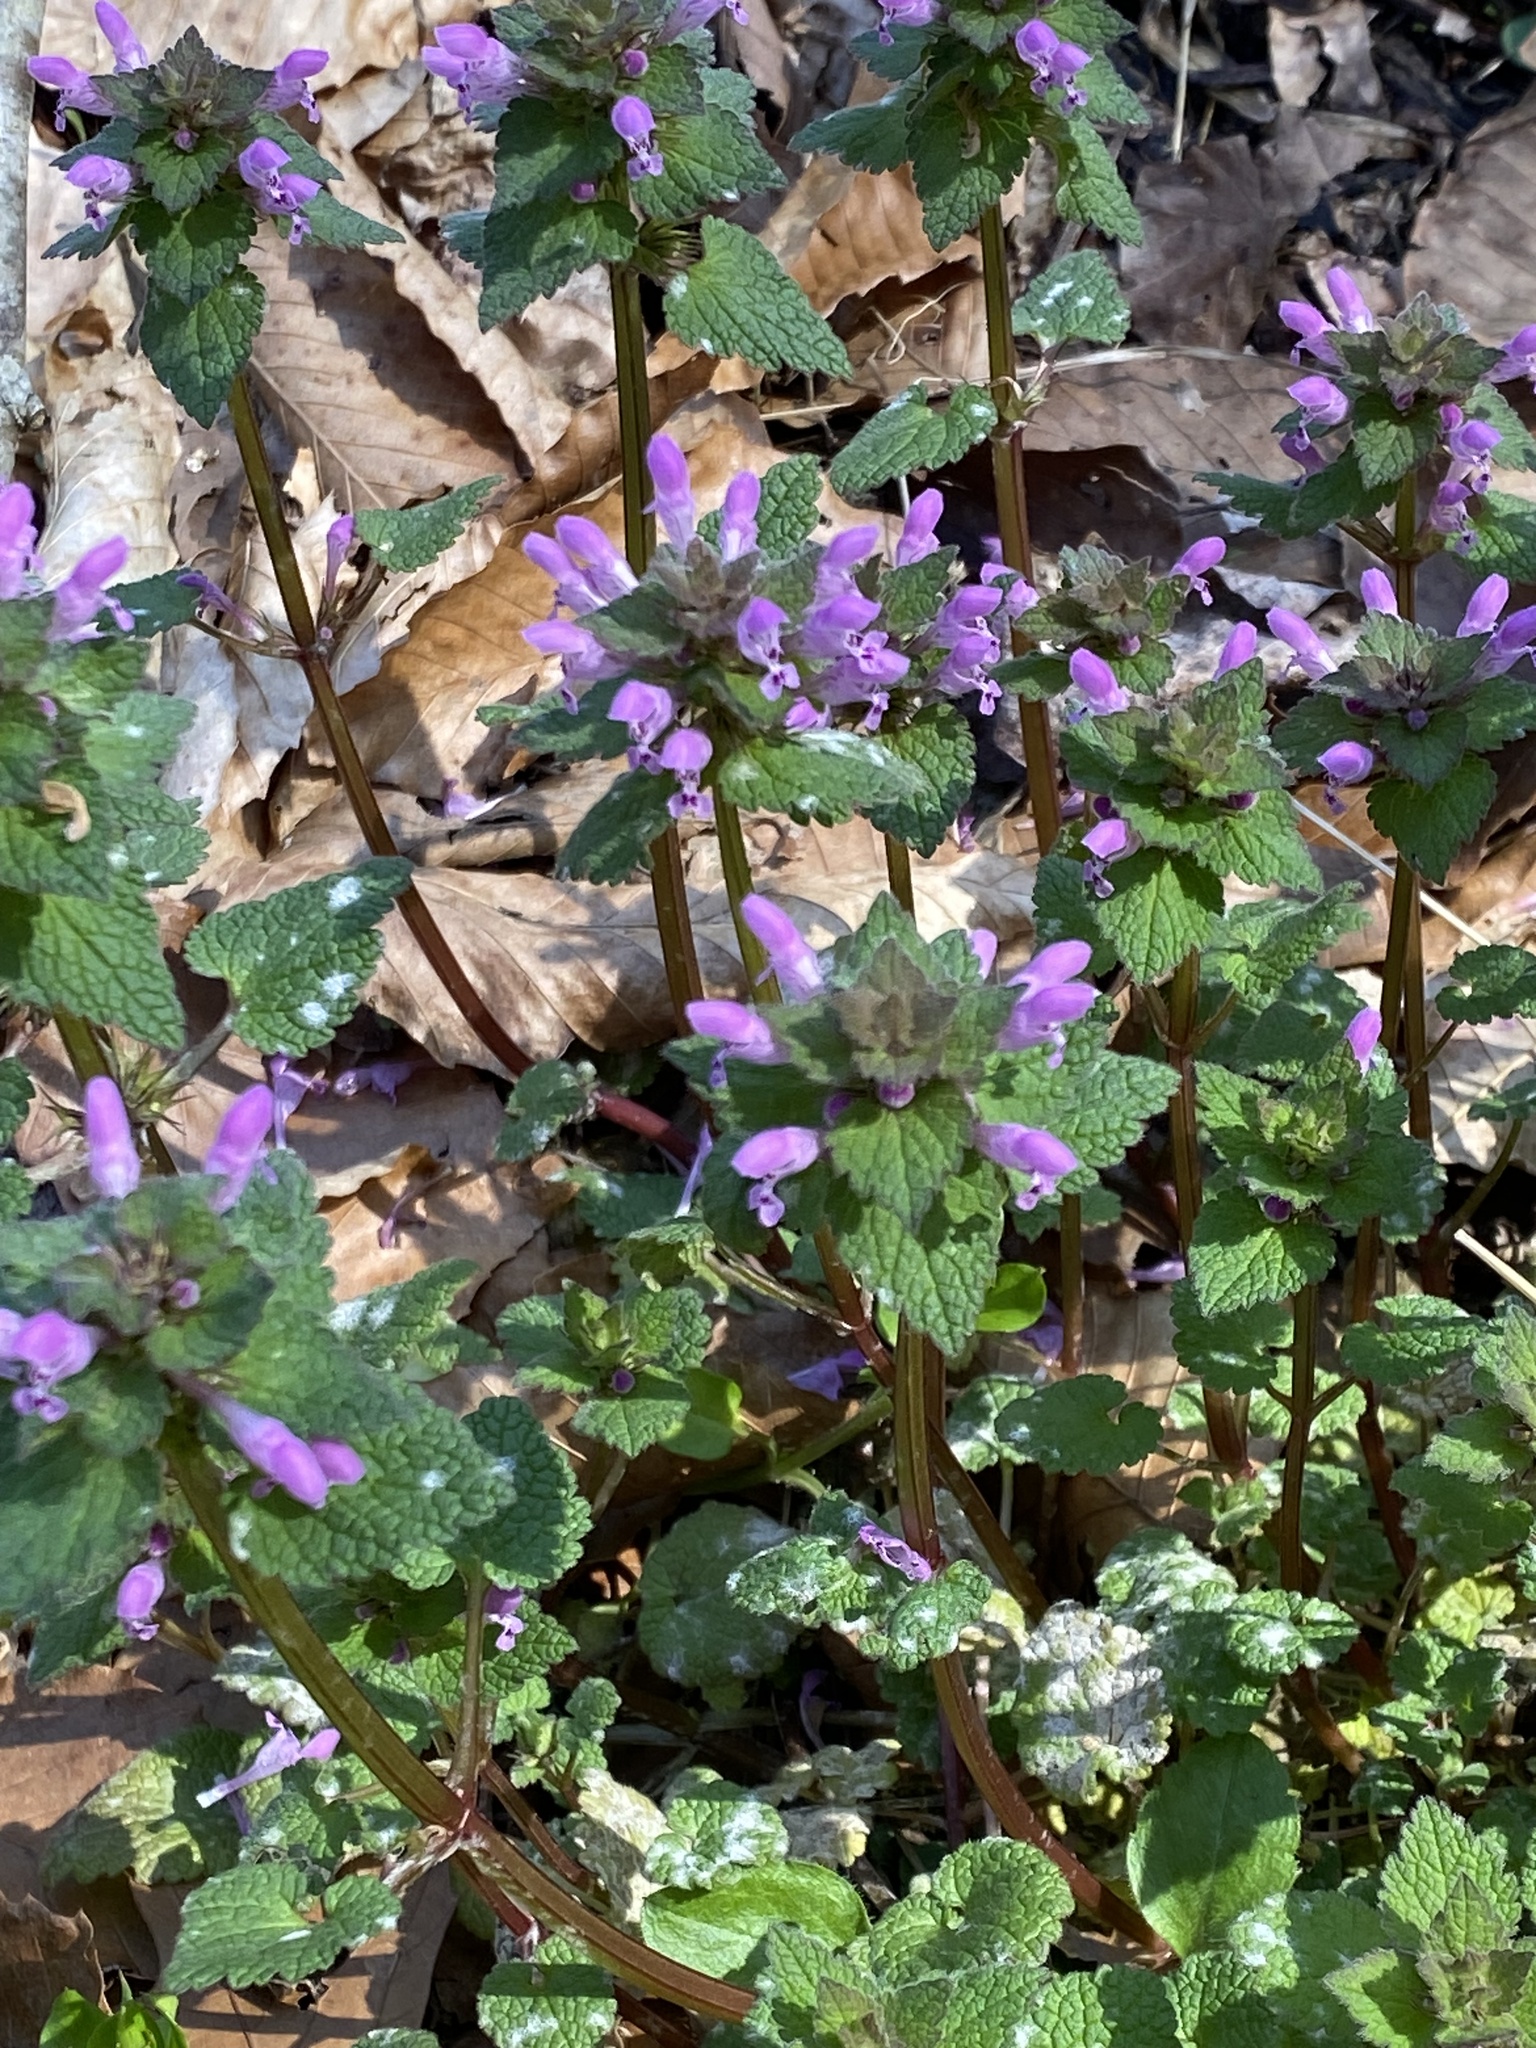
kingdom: Plantae
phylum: Tracheophyta
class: Magnoliopsida
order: Lamiales
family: Lamiaceae
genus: Lamium
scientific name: Lamium purpureum
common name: Red dead-nettle
